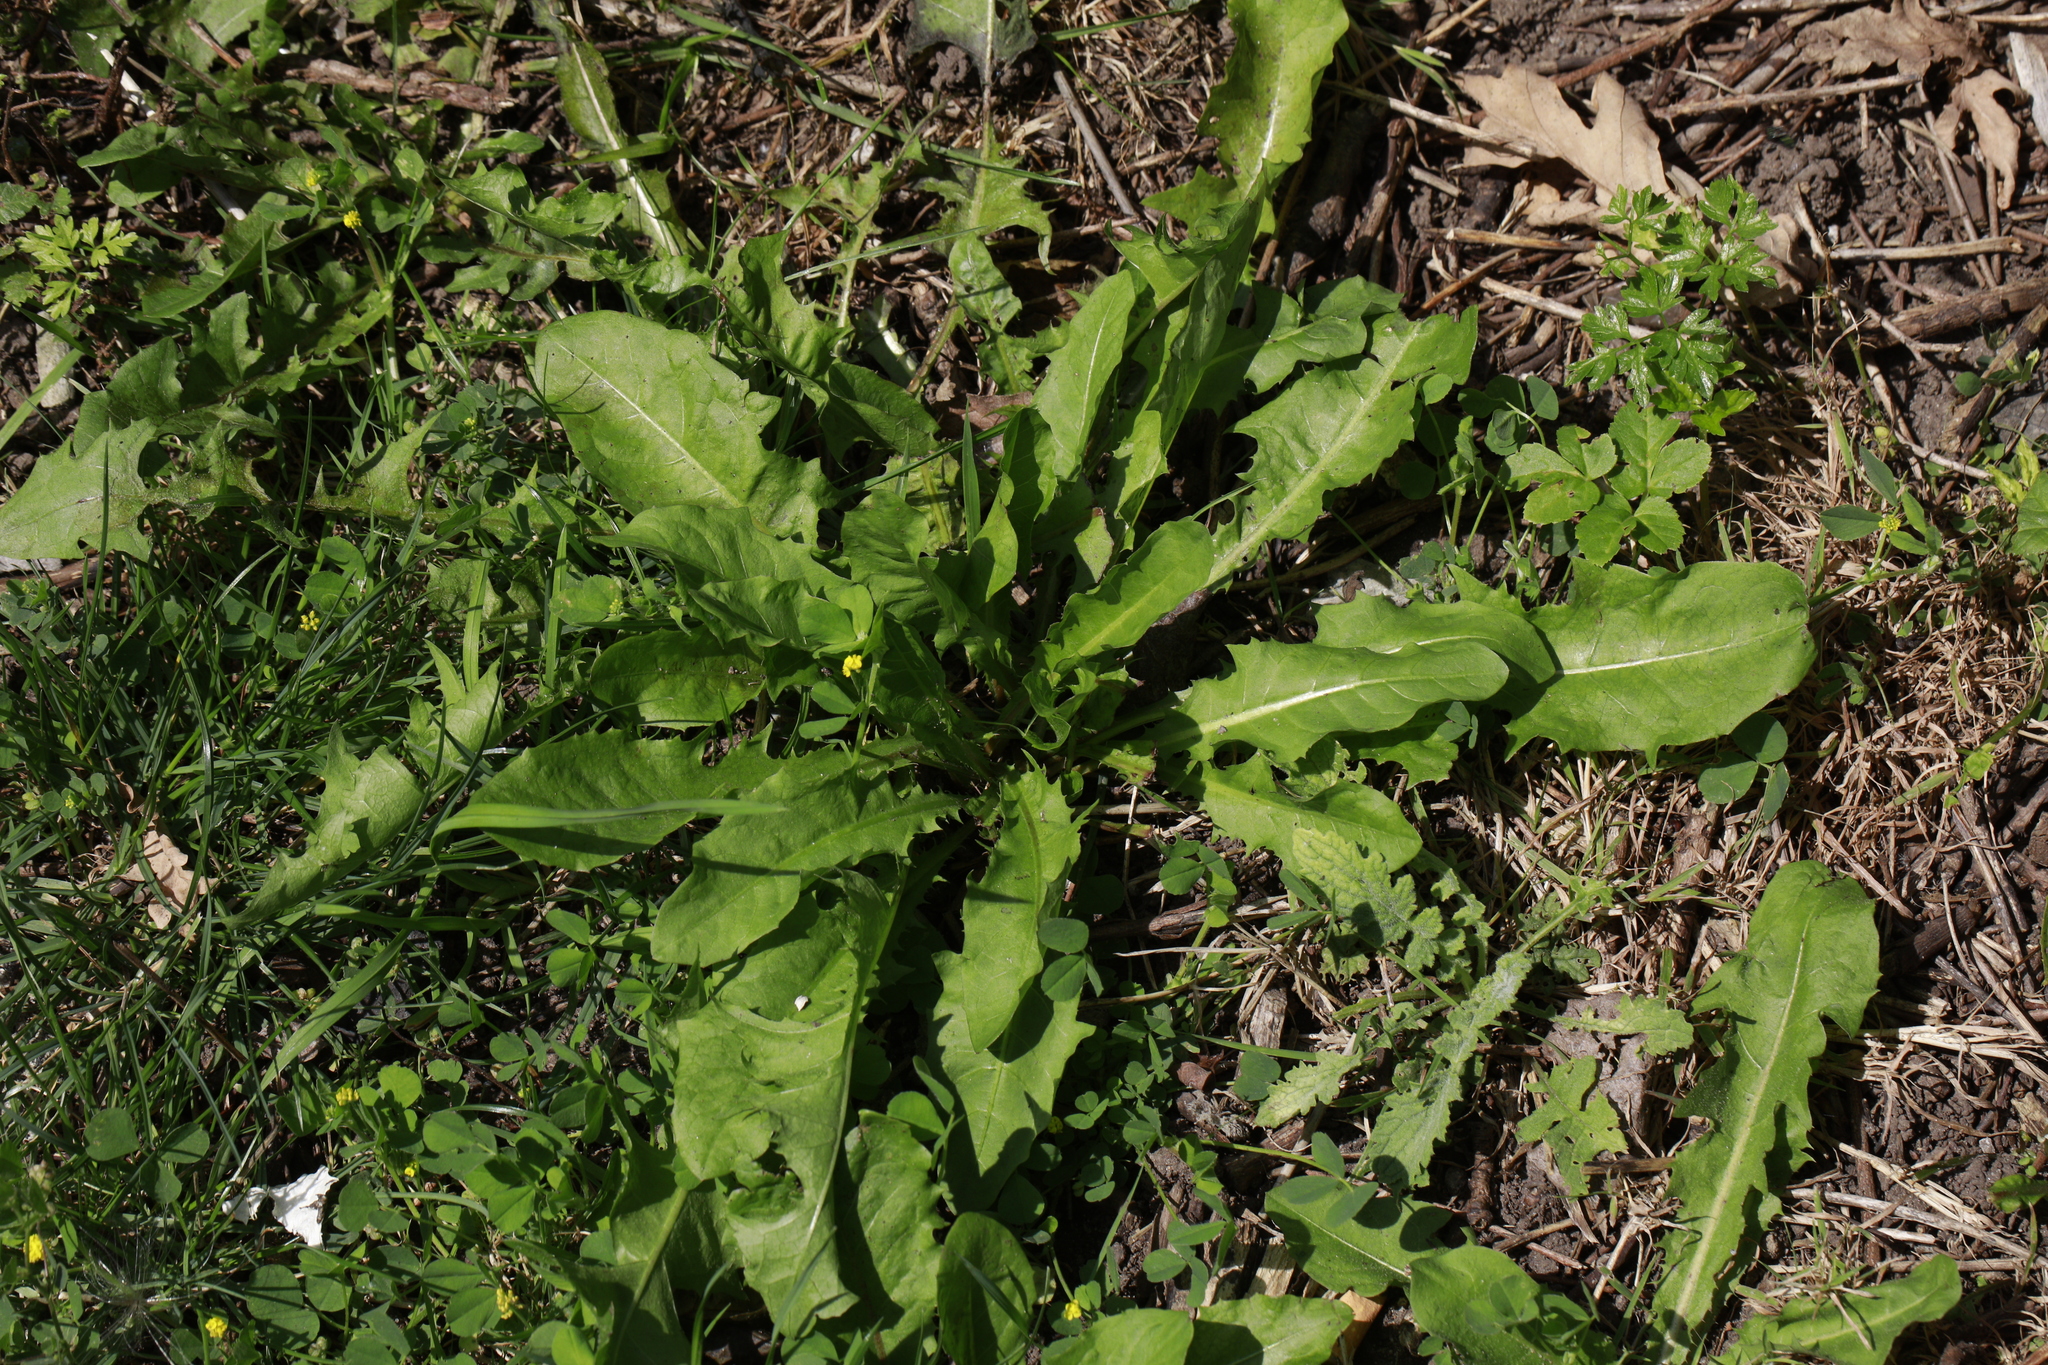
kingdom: Plantae
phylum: Tracheophyta
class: Magnoliopsida
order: Asterales
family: Asteraceae
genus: Taraxacum
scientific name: Taraxacum officinale
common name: Common dandelion
